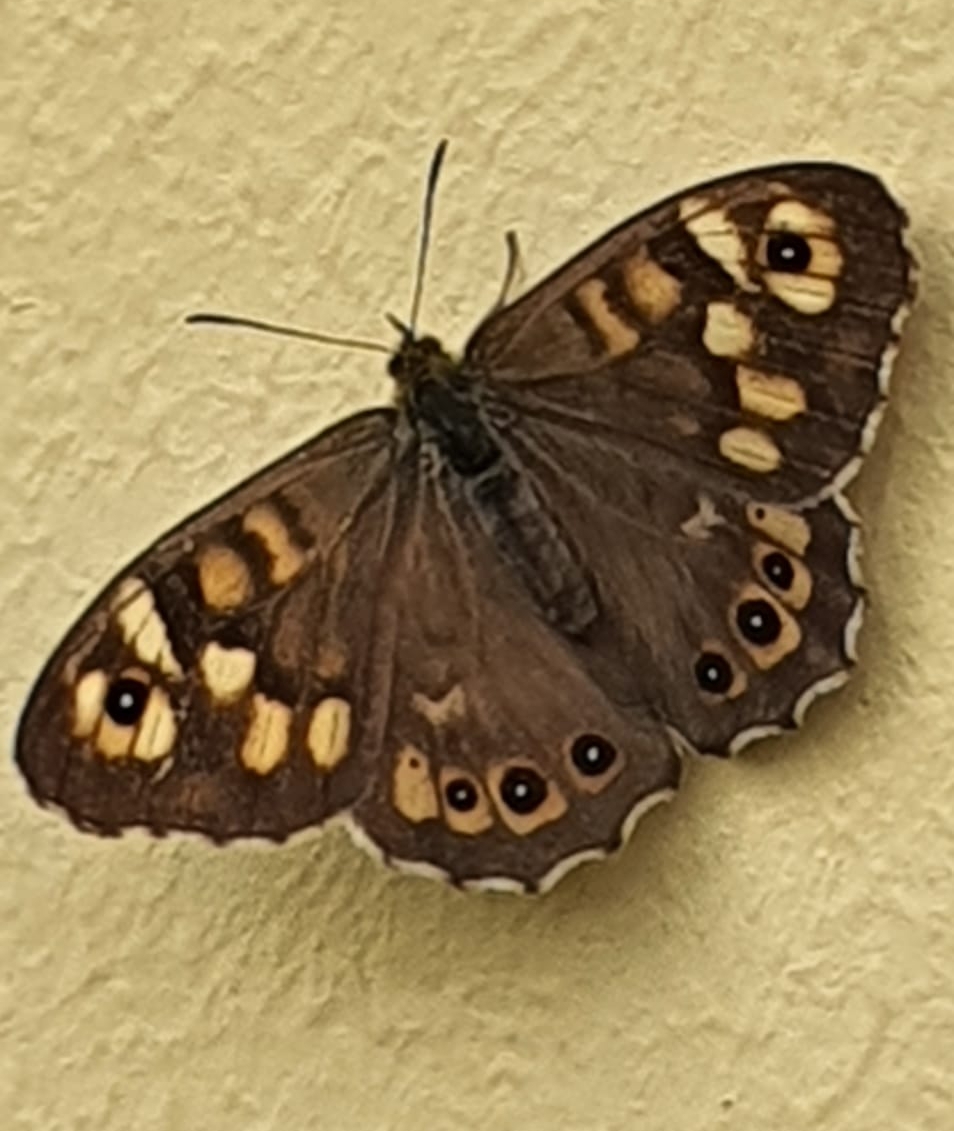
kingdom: Animalia
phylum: Arthropoda
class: Insecta
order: Lepidoptera
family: Nymphalidae
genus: Pararge
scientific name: Pararge aegeria
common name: Speckled wood
